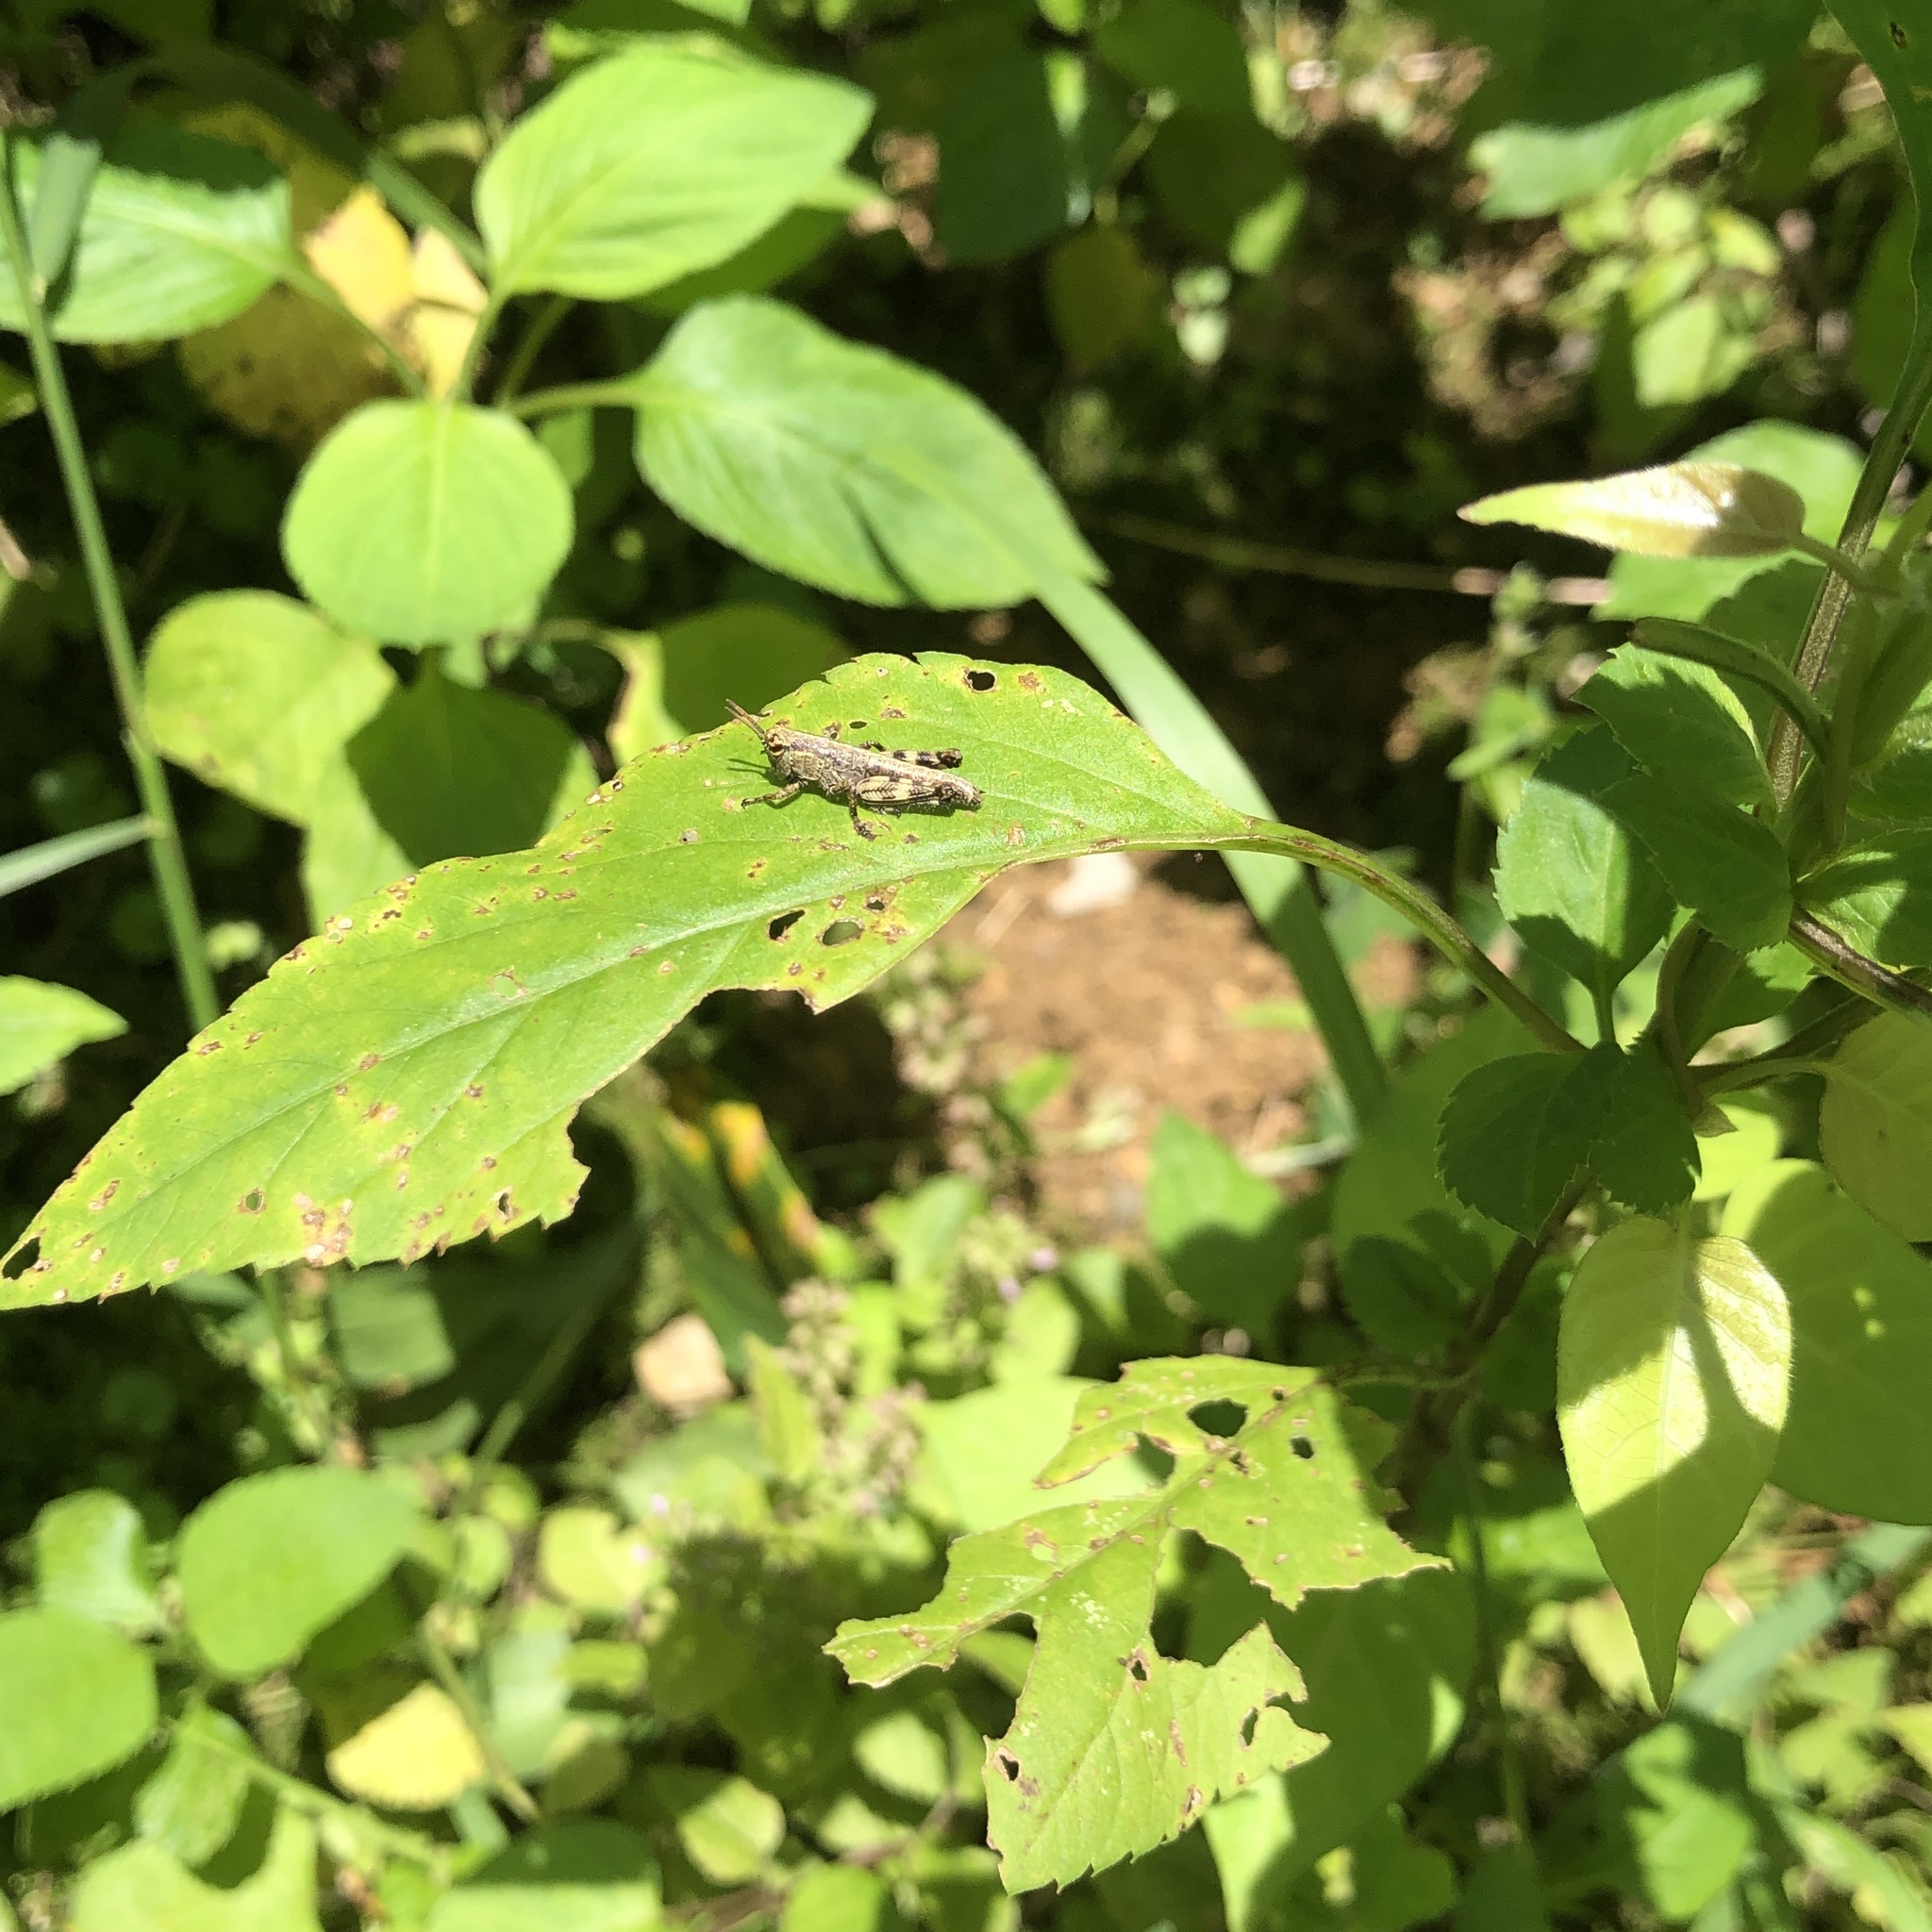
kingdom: Animalia
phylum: Arthropoda
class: Insecta
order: Orthoptera
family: Acrididae
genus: Fruhstorferiola
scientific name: Fruhstorferiola okinawaensis
